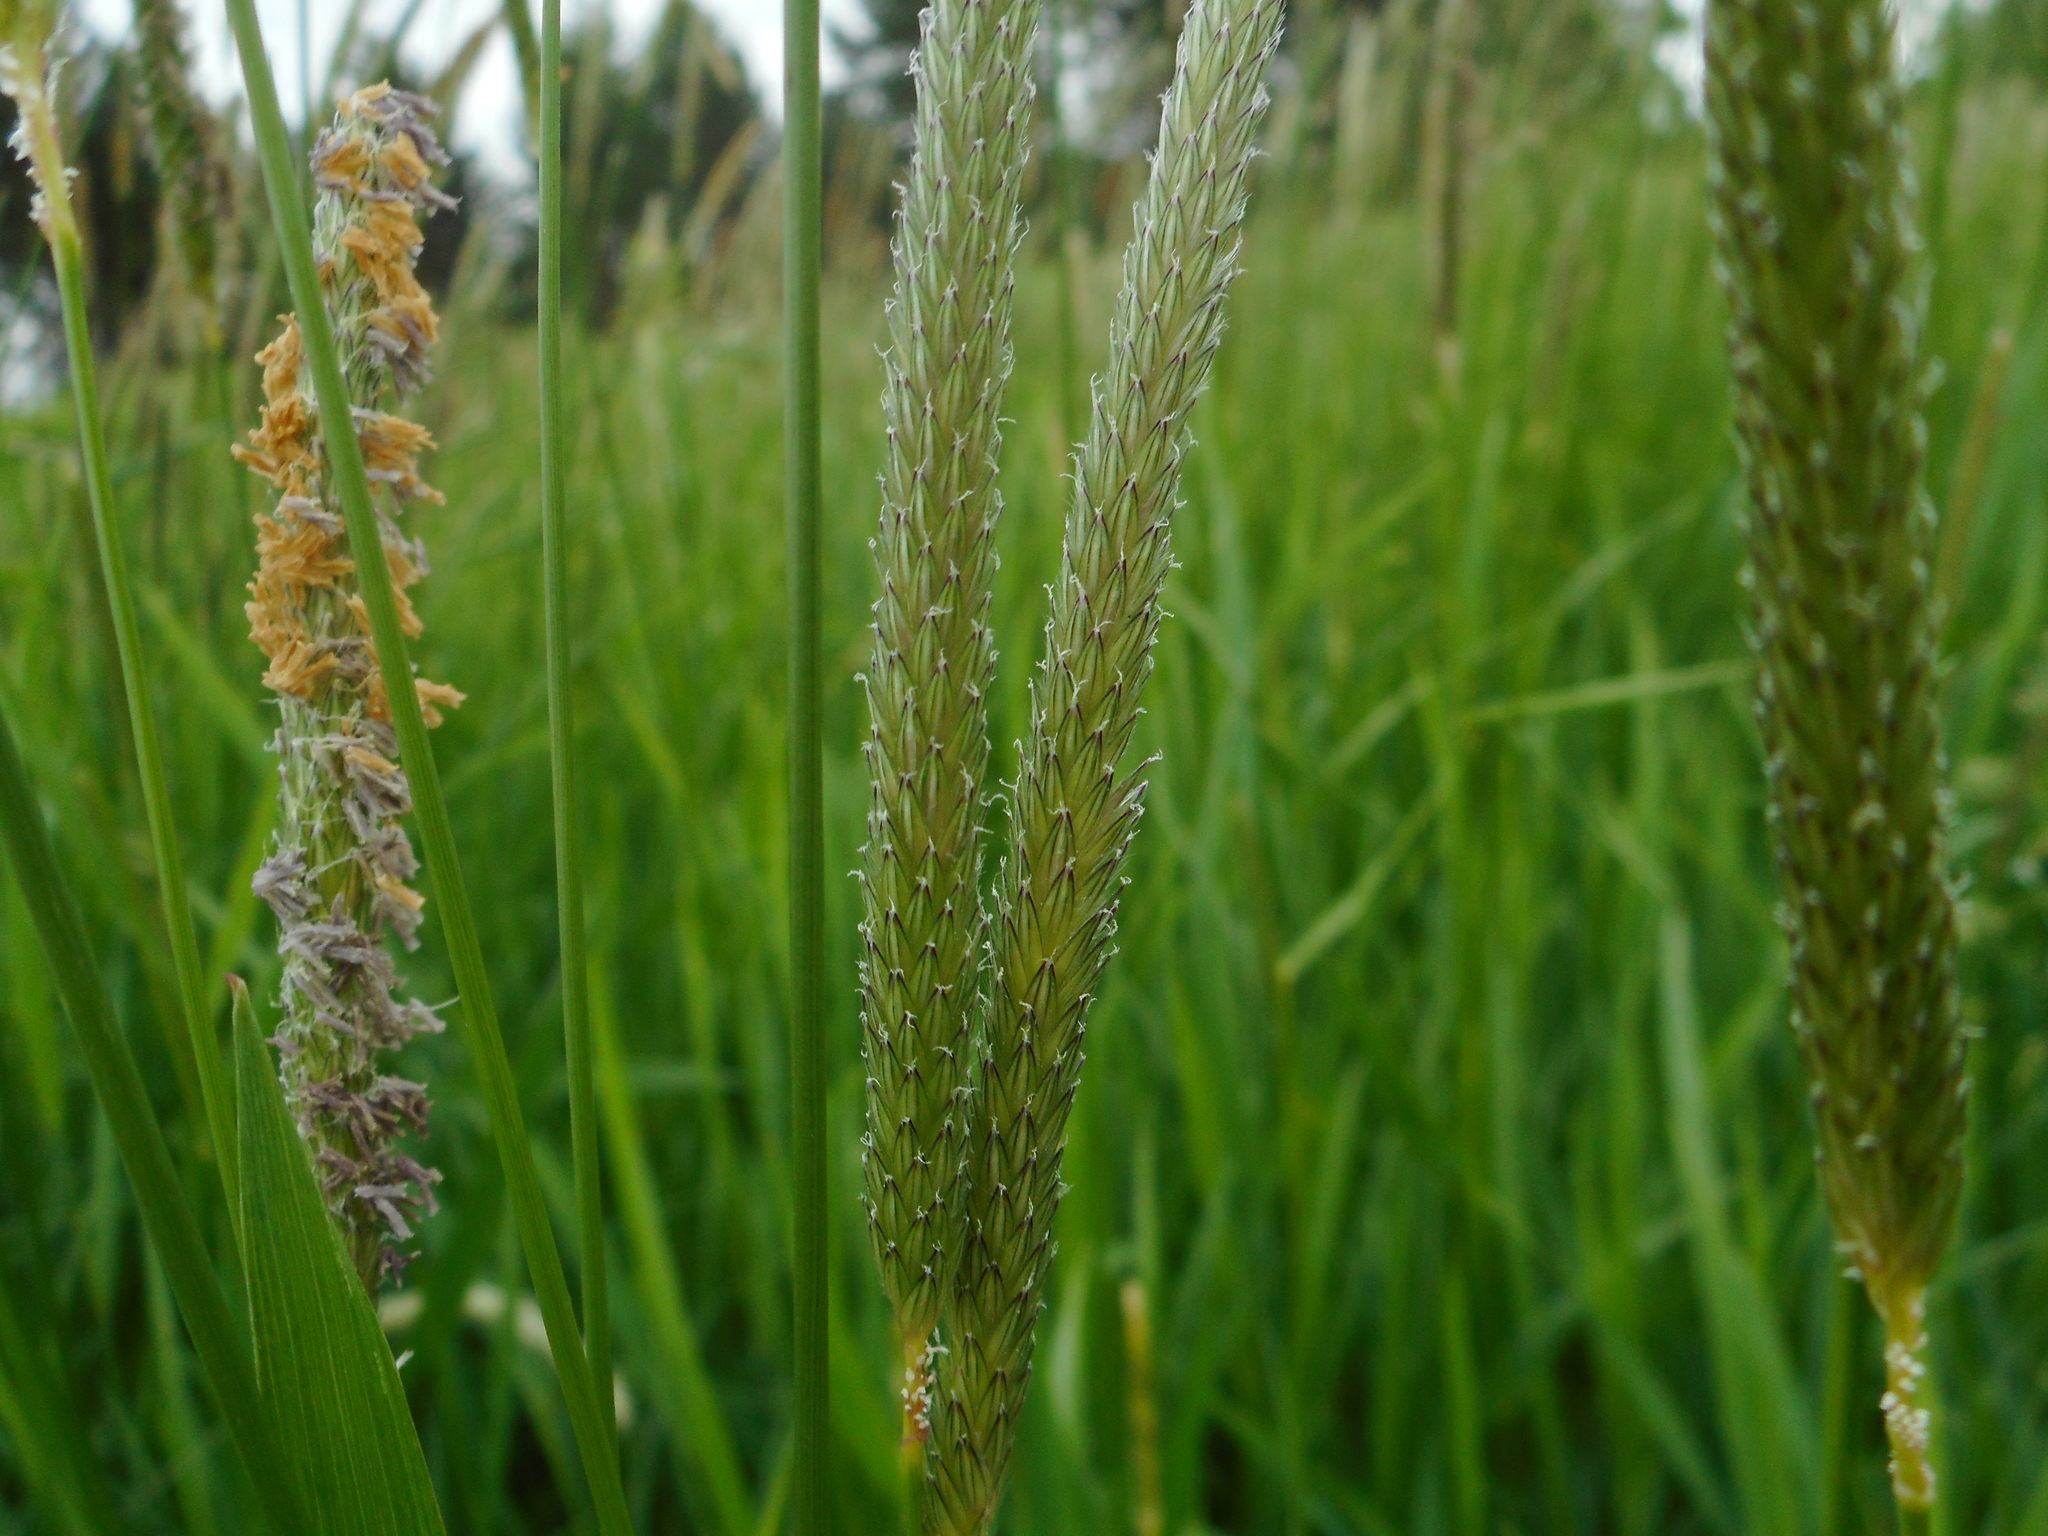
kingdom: Plantae
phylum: Tracheophyta
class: Liliopsida
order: Poales
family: Poaceae
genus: Alopecurus
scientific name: Alopecurus pratensis
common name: Meadow foxtail
